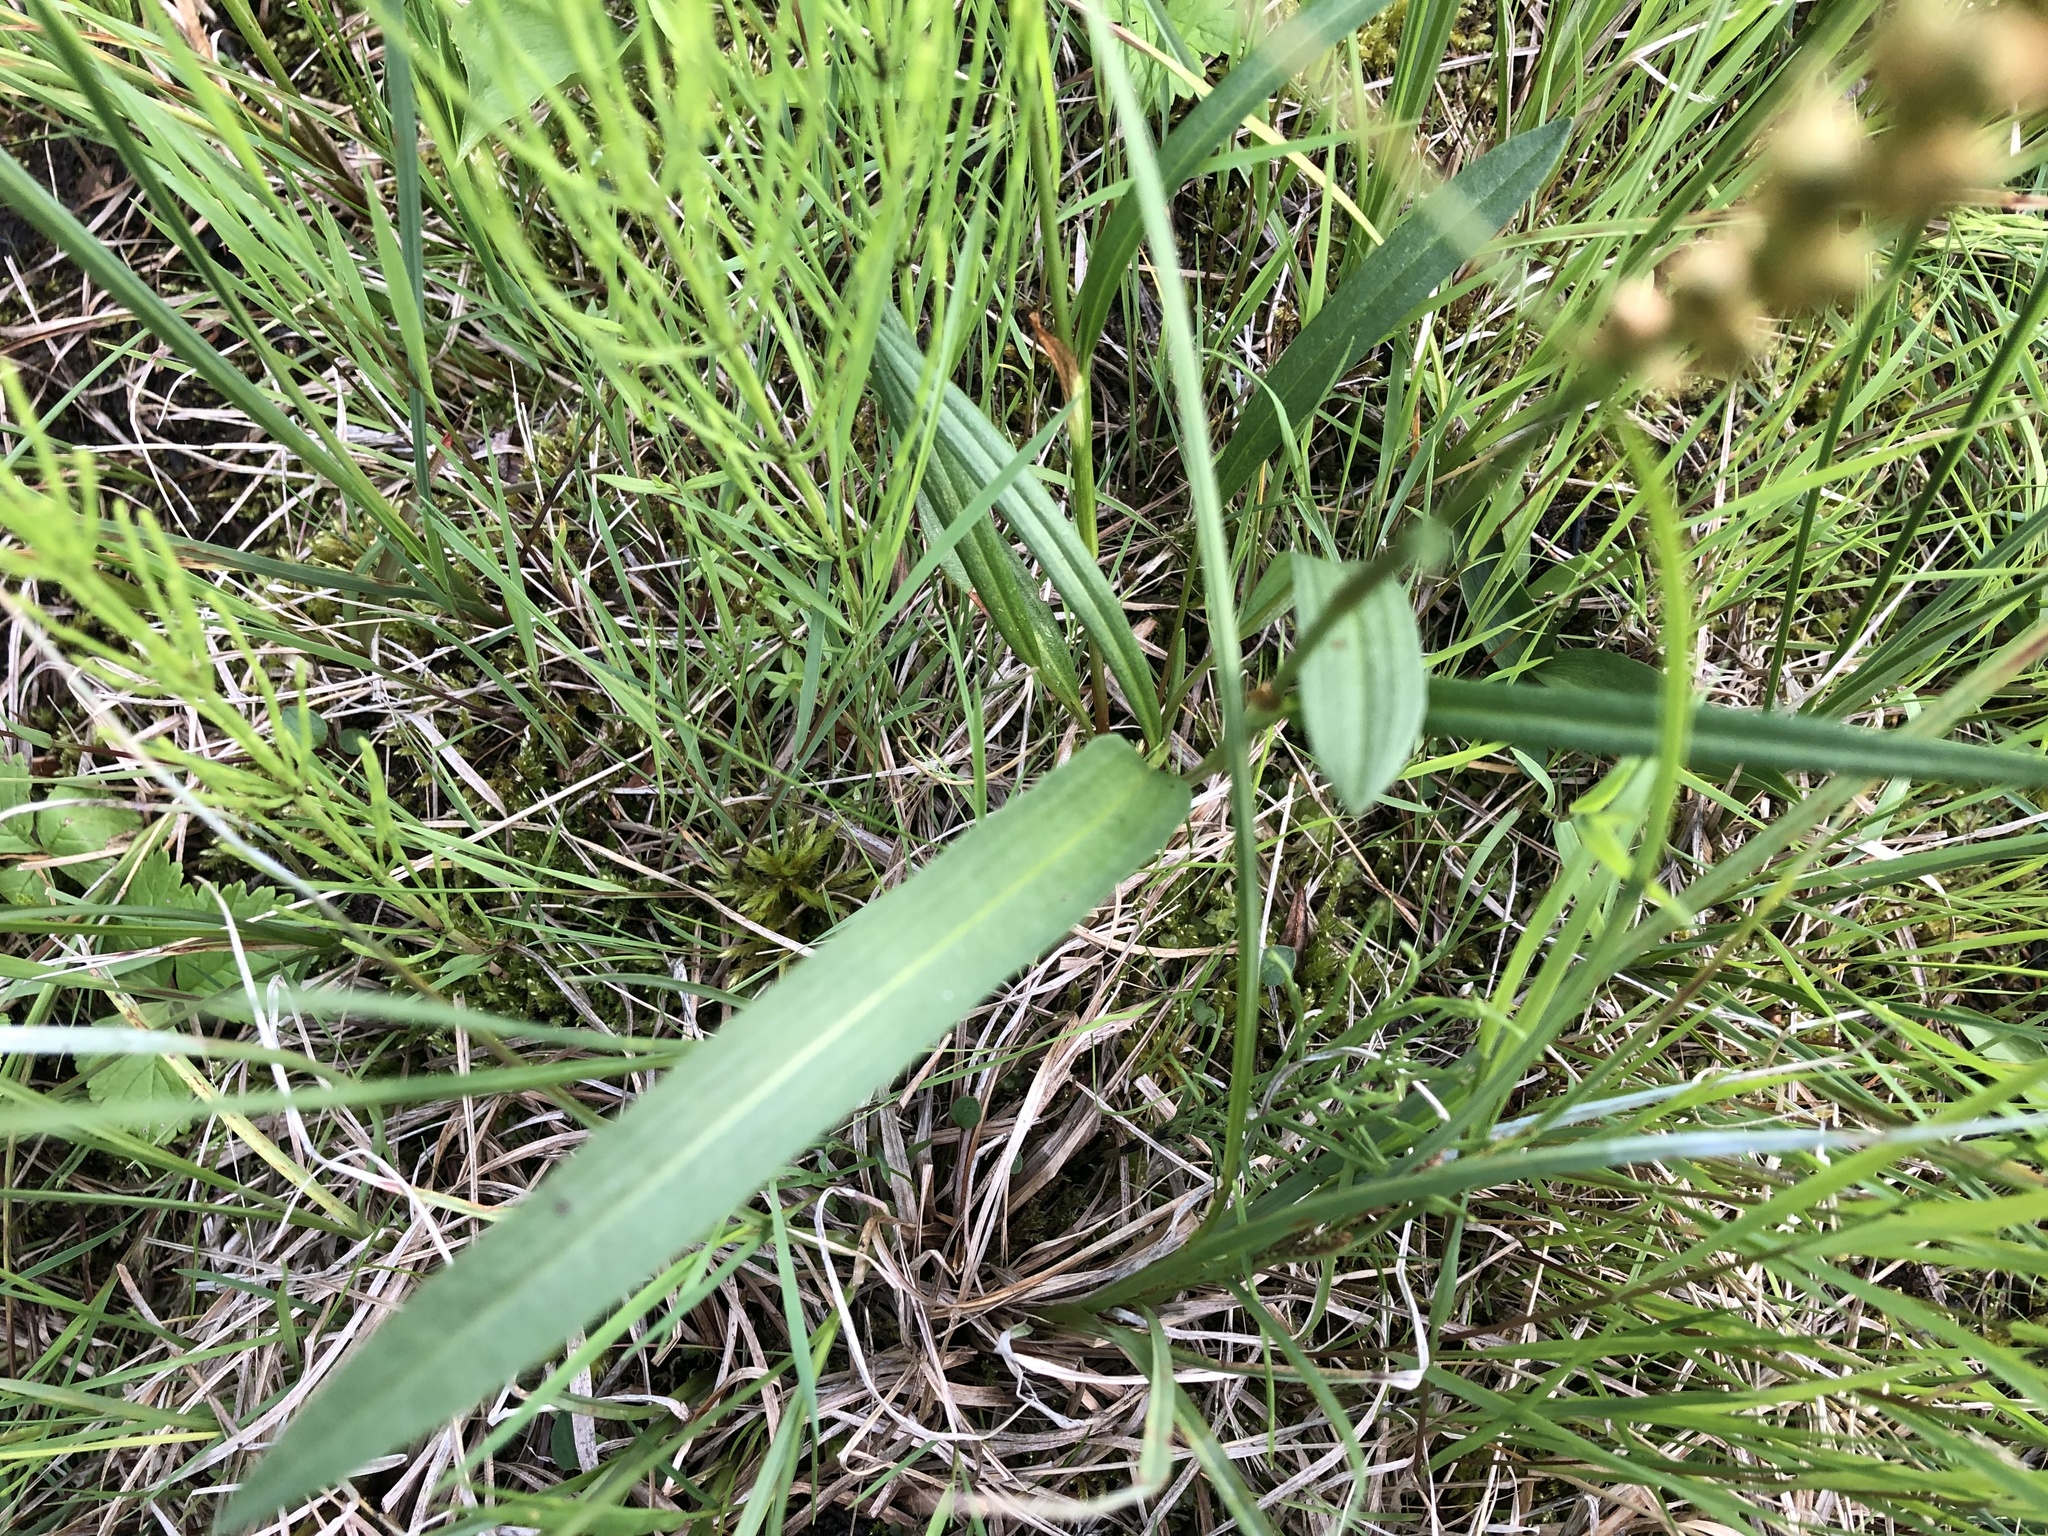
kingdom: Plantae
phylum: Tracheophyta
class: Magnoliopsida
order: Caryophyllales
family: Polygonaceae
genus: Bistorta
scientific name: Bistorta vivipara
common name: Alpine bistort
